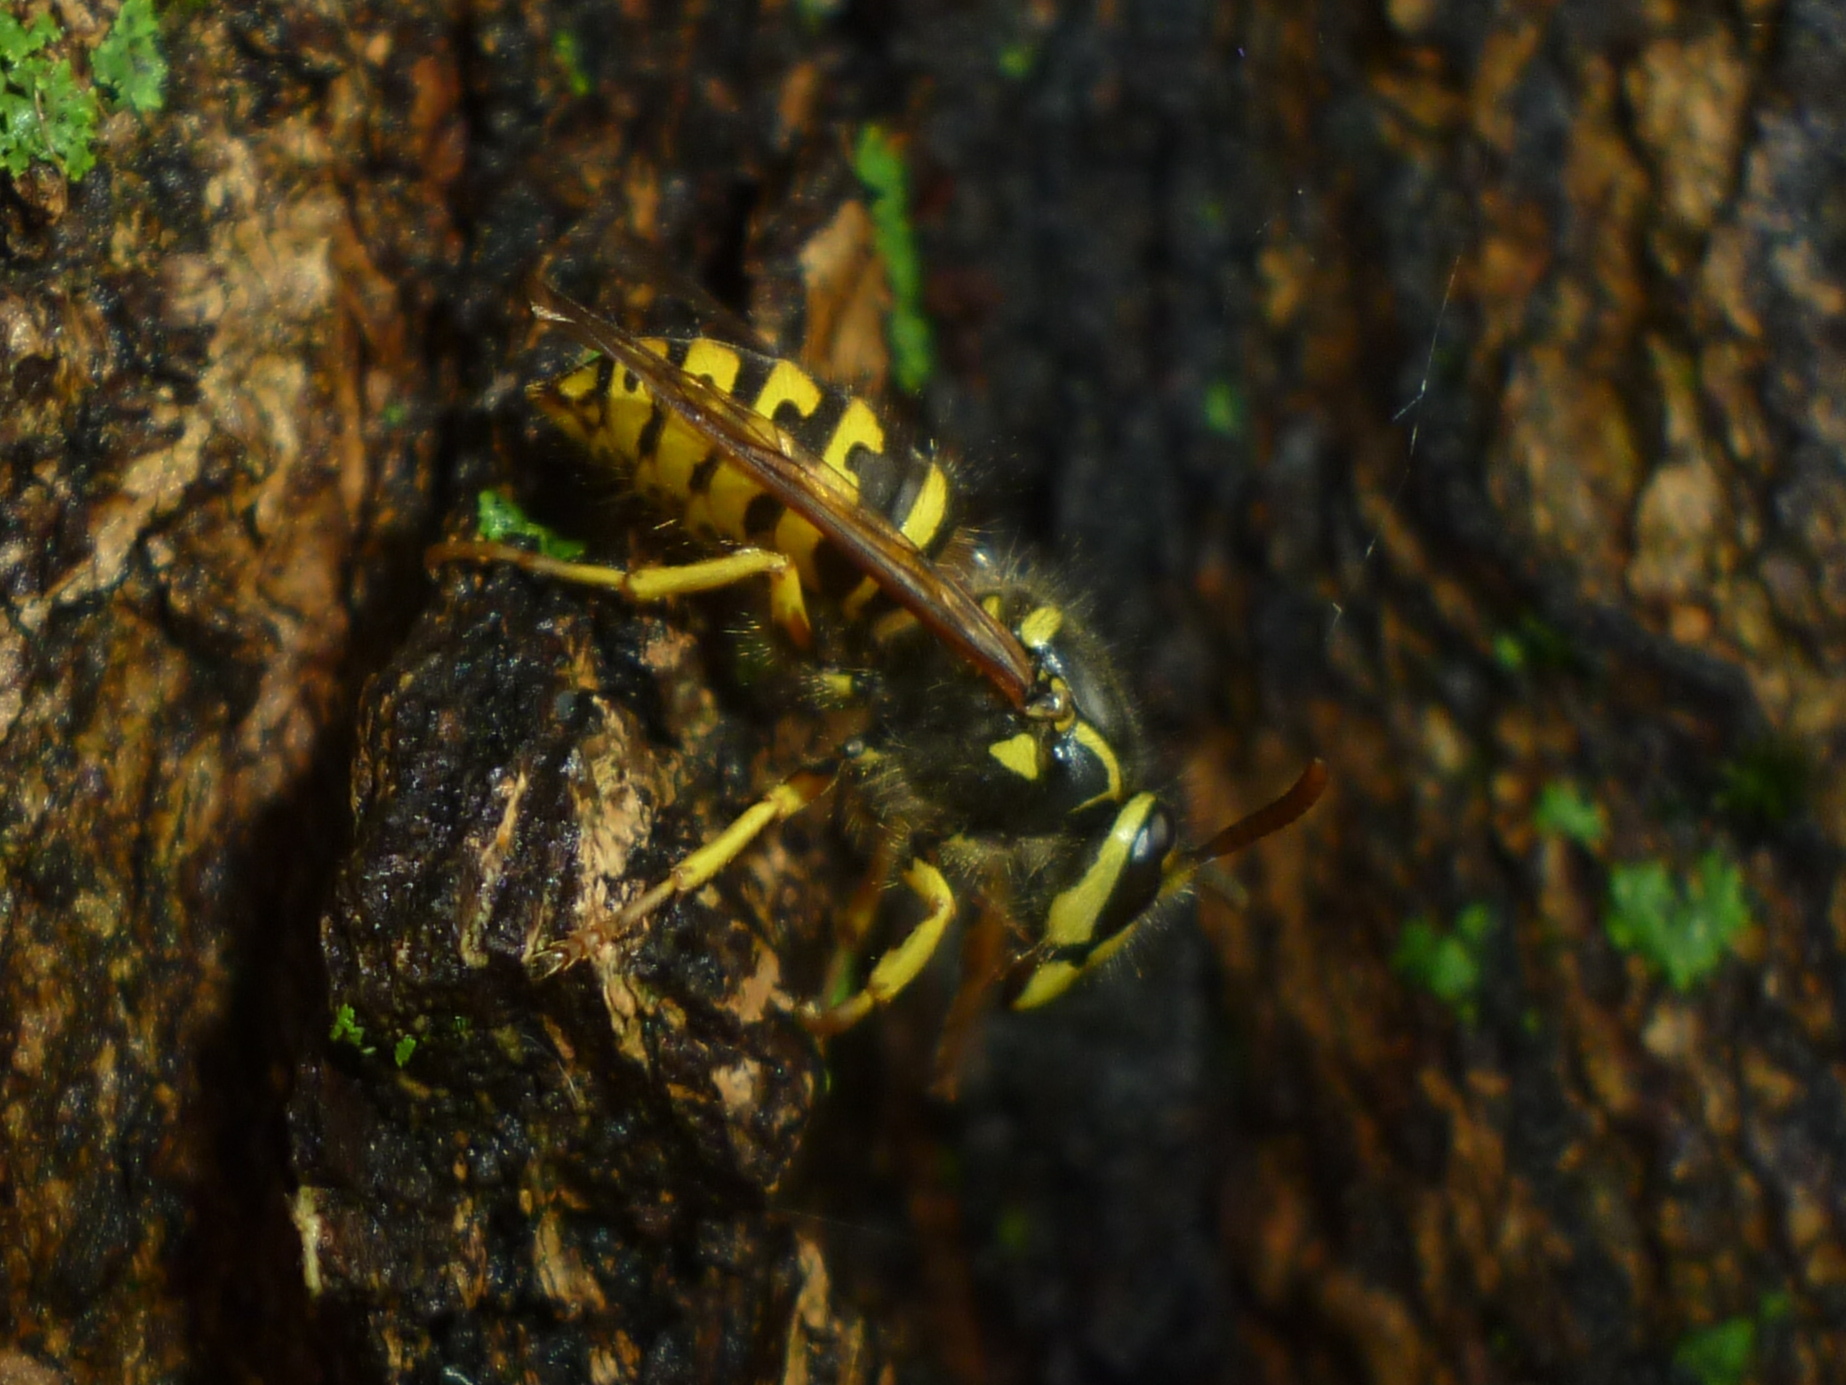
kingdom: Animalia
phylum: Arthropoda
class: Insecta
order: Hymenoptera
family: Vespidae
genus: Dolichovespula
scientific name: Dolichovespula arenaria
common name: Aerial yellowjacket
